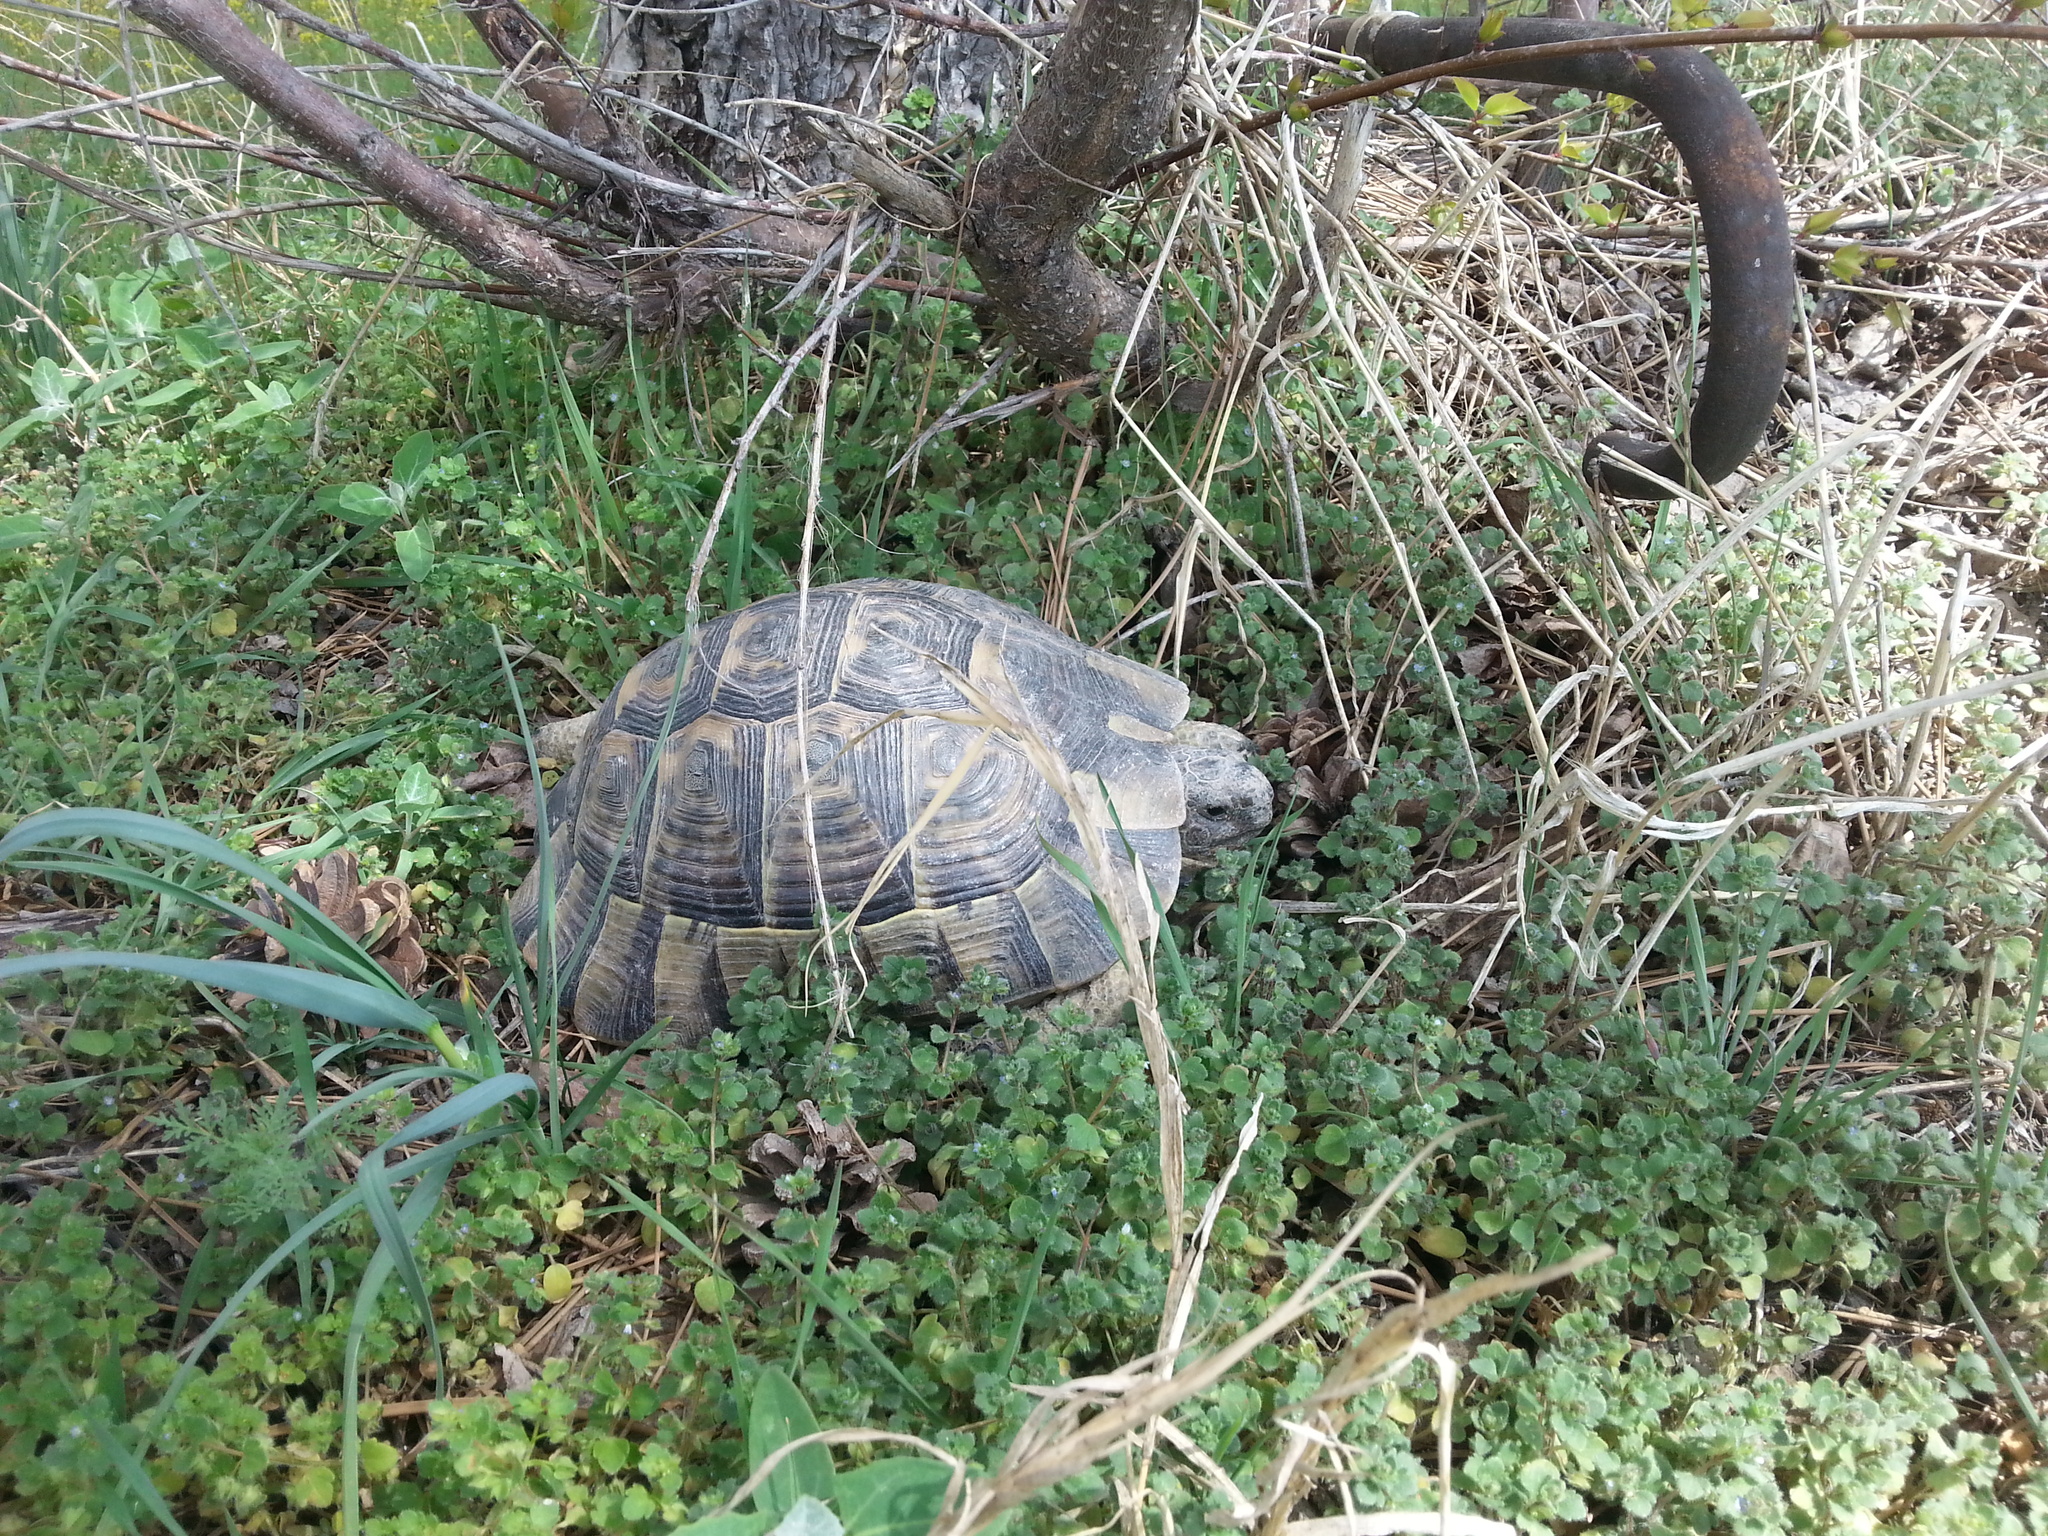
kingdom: Animalia
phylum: Chordata
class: Testudines
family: Testudinidae
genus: Testudo
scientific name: Testudo graeca
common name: Common tortoise
